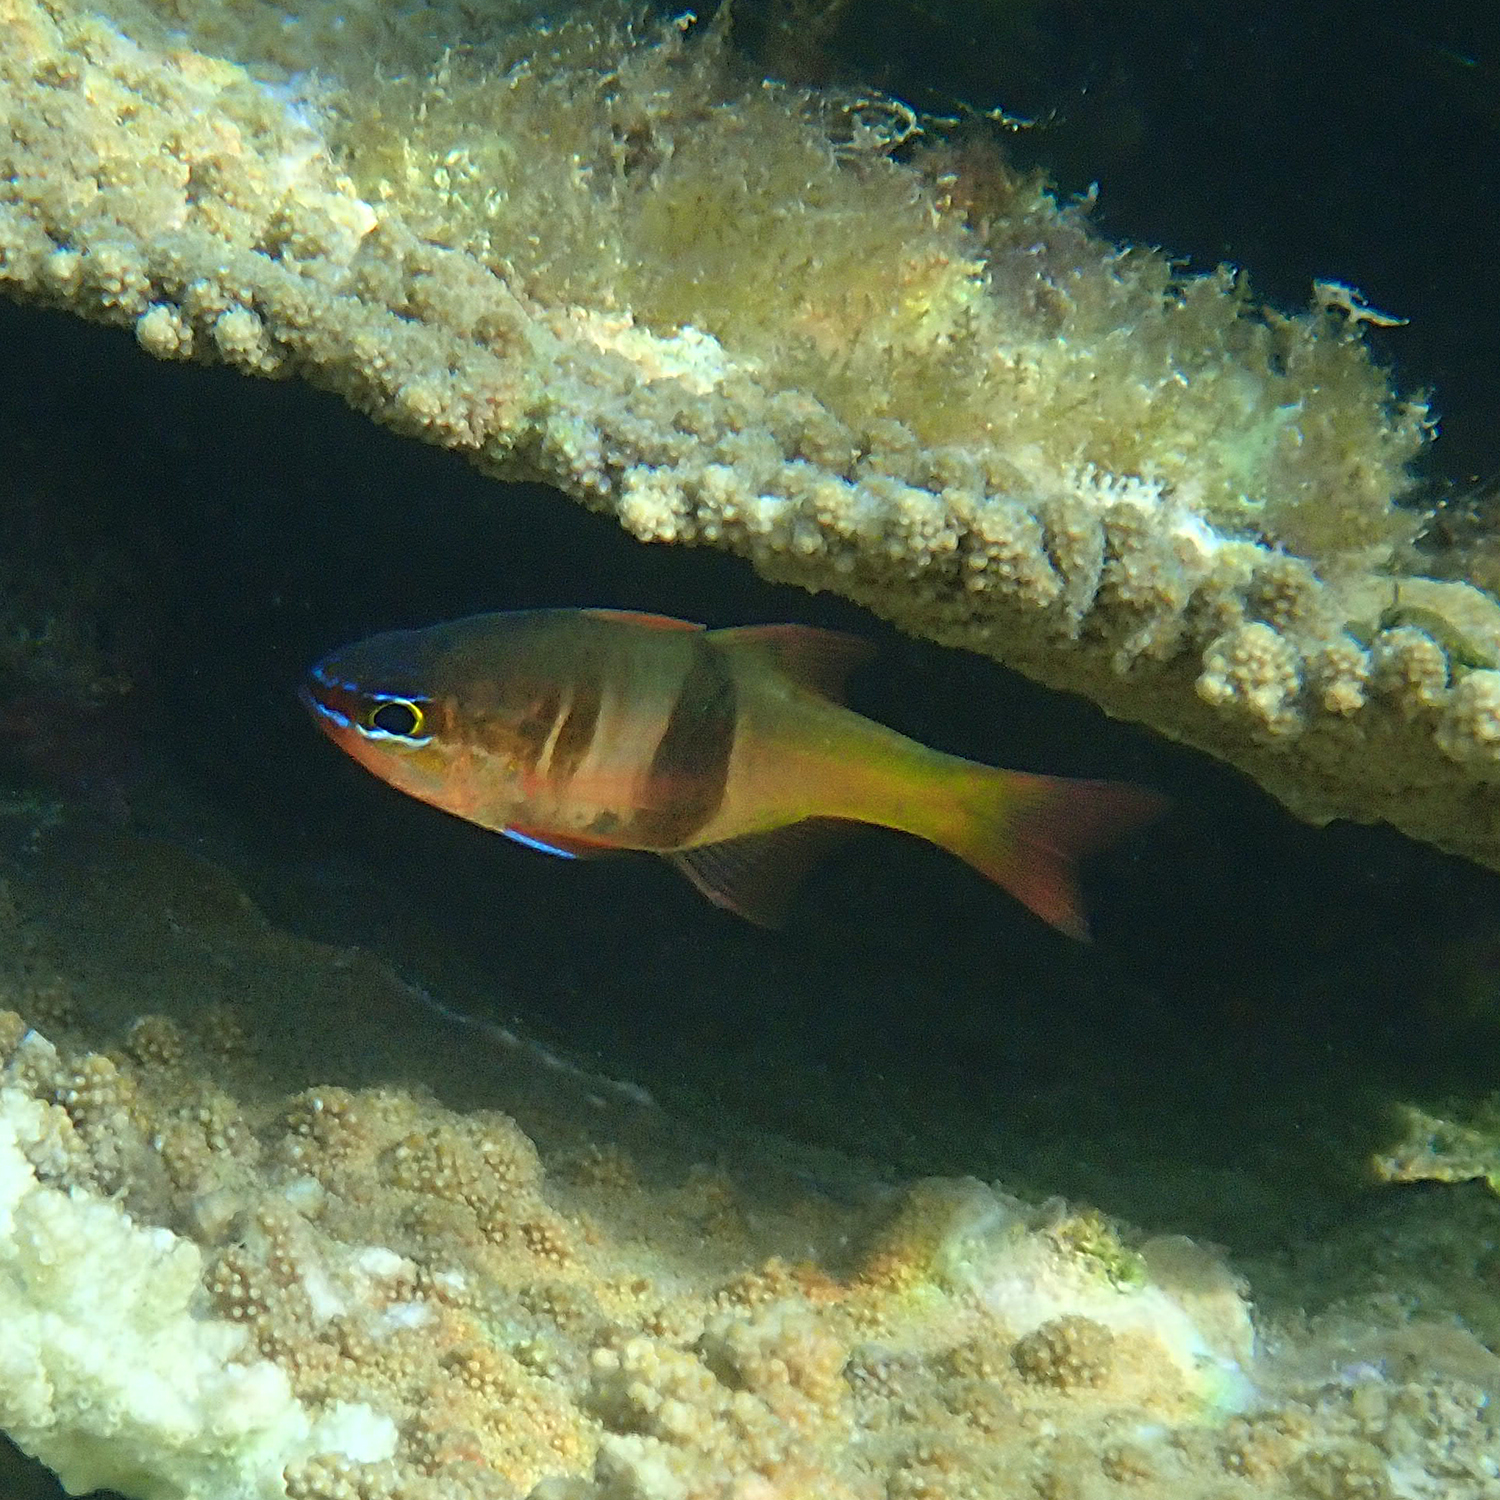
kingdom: Animalia
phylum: Chordata
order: Perciformes
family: Apogonidae
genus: Taeniamia
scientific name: Taeniamia leai
